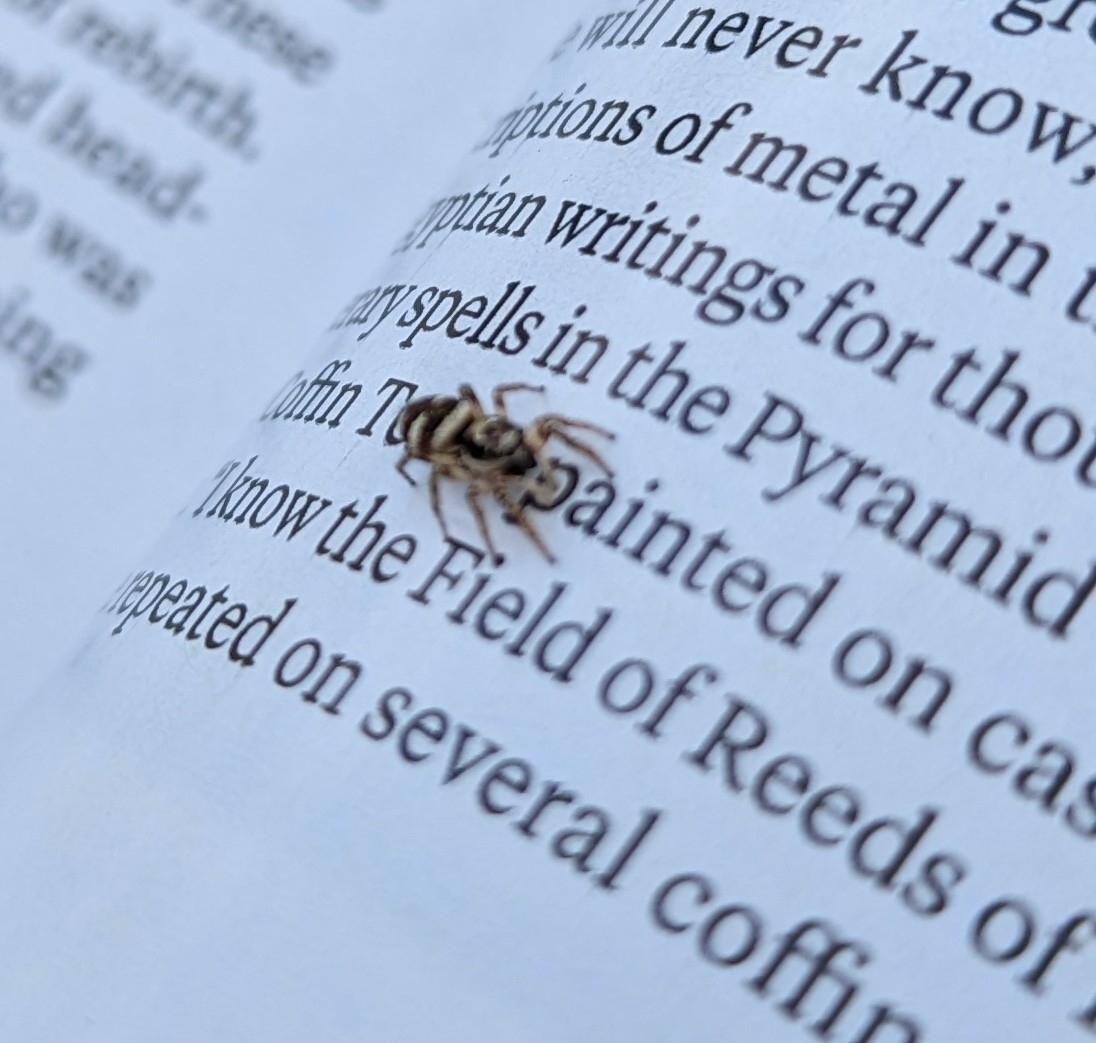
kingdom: Animalia
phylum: Arthropoda
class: Arachnida
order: Araneae
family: Salticidae
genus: Salticus
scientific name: Salticus scenicus
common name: Zebra jumper
